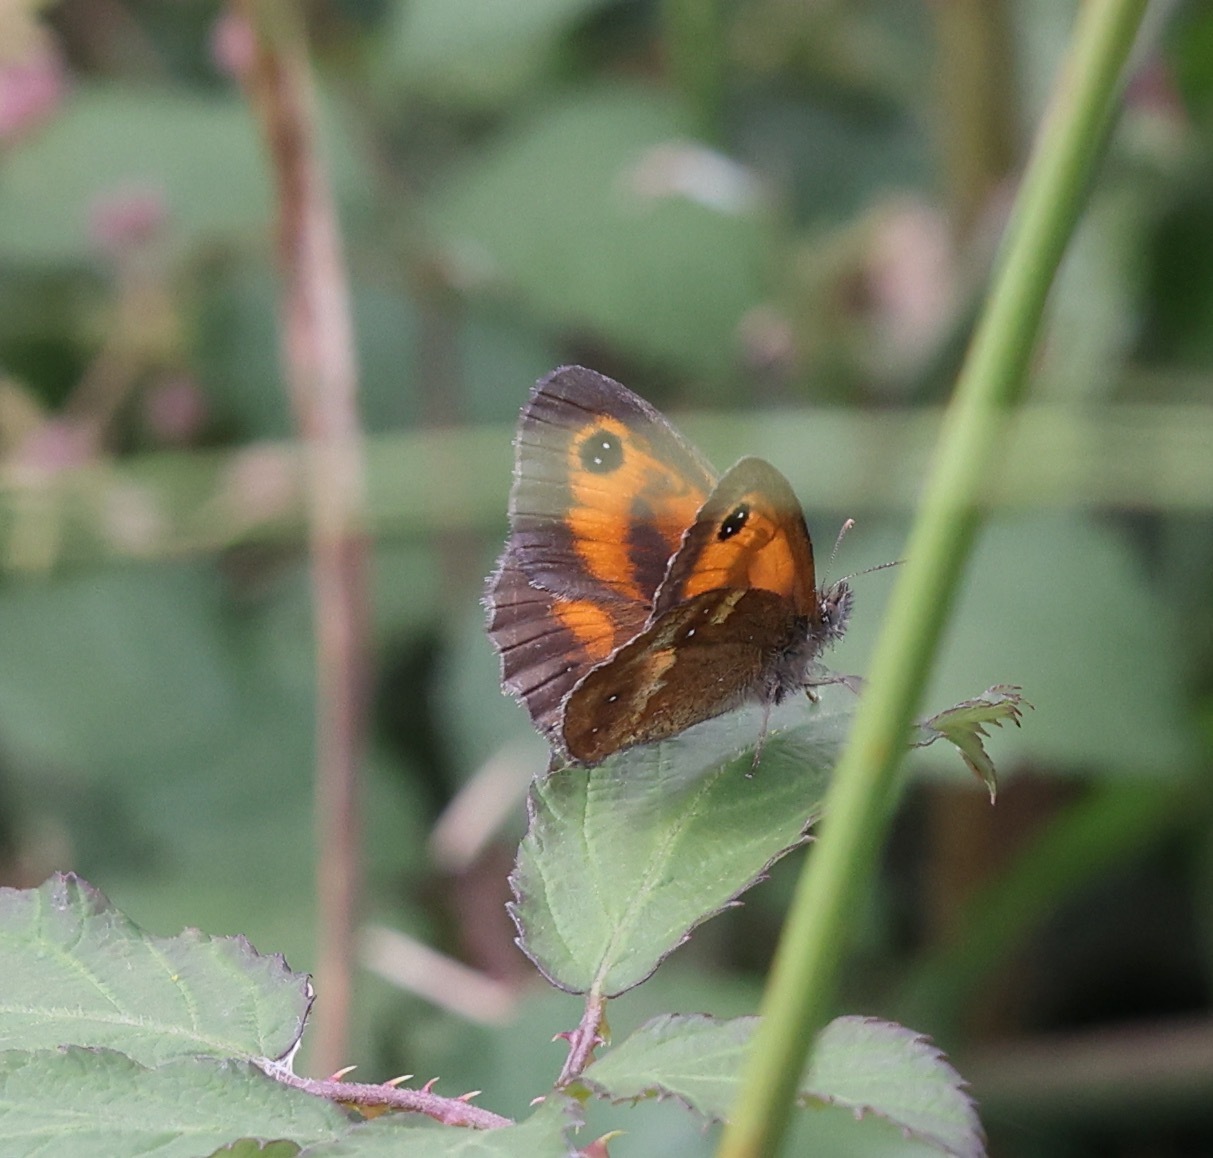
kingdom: Animalia
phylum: Arthropoda
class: Insecta
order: Lepidoptera
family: Nymphalidae
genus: Pyronia
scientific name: Pyronia tithonus
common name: Gatekeeper
